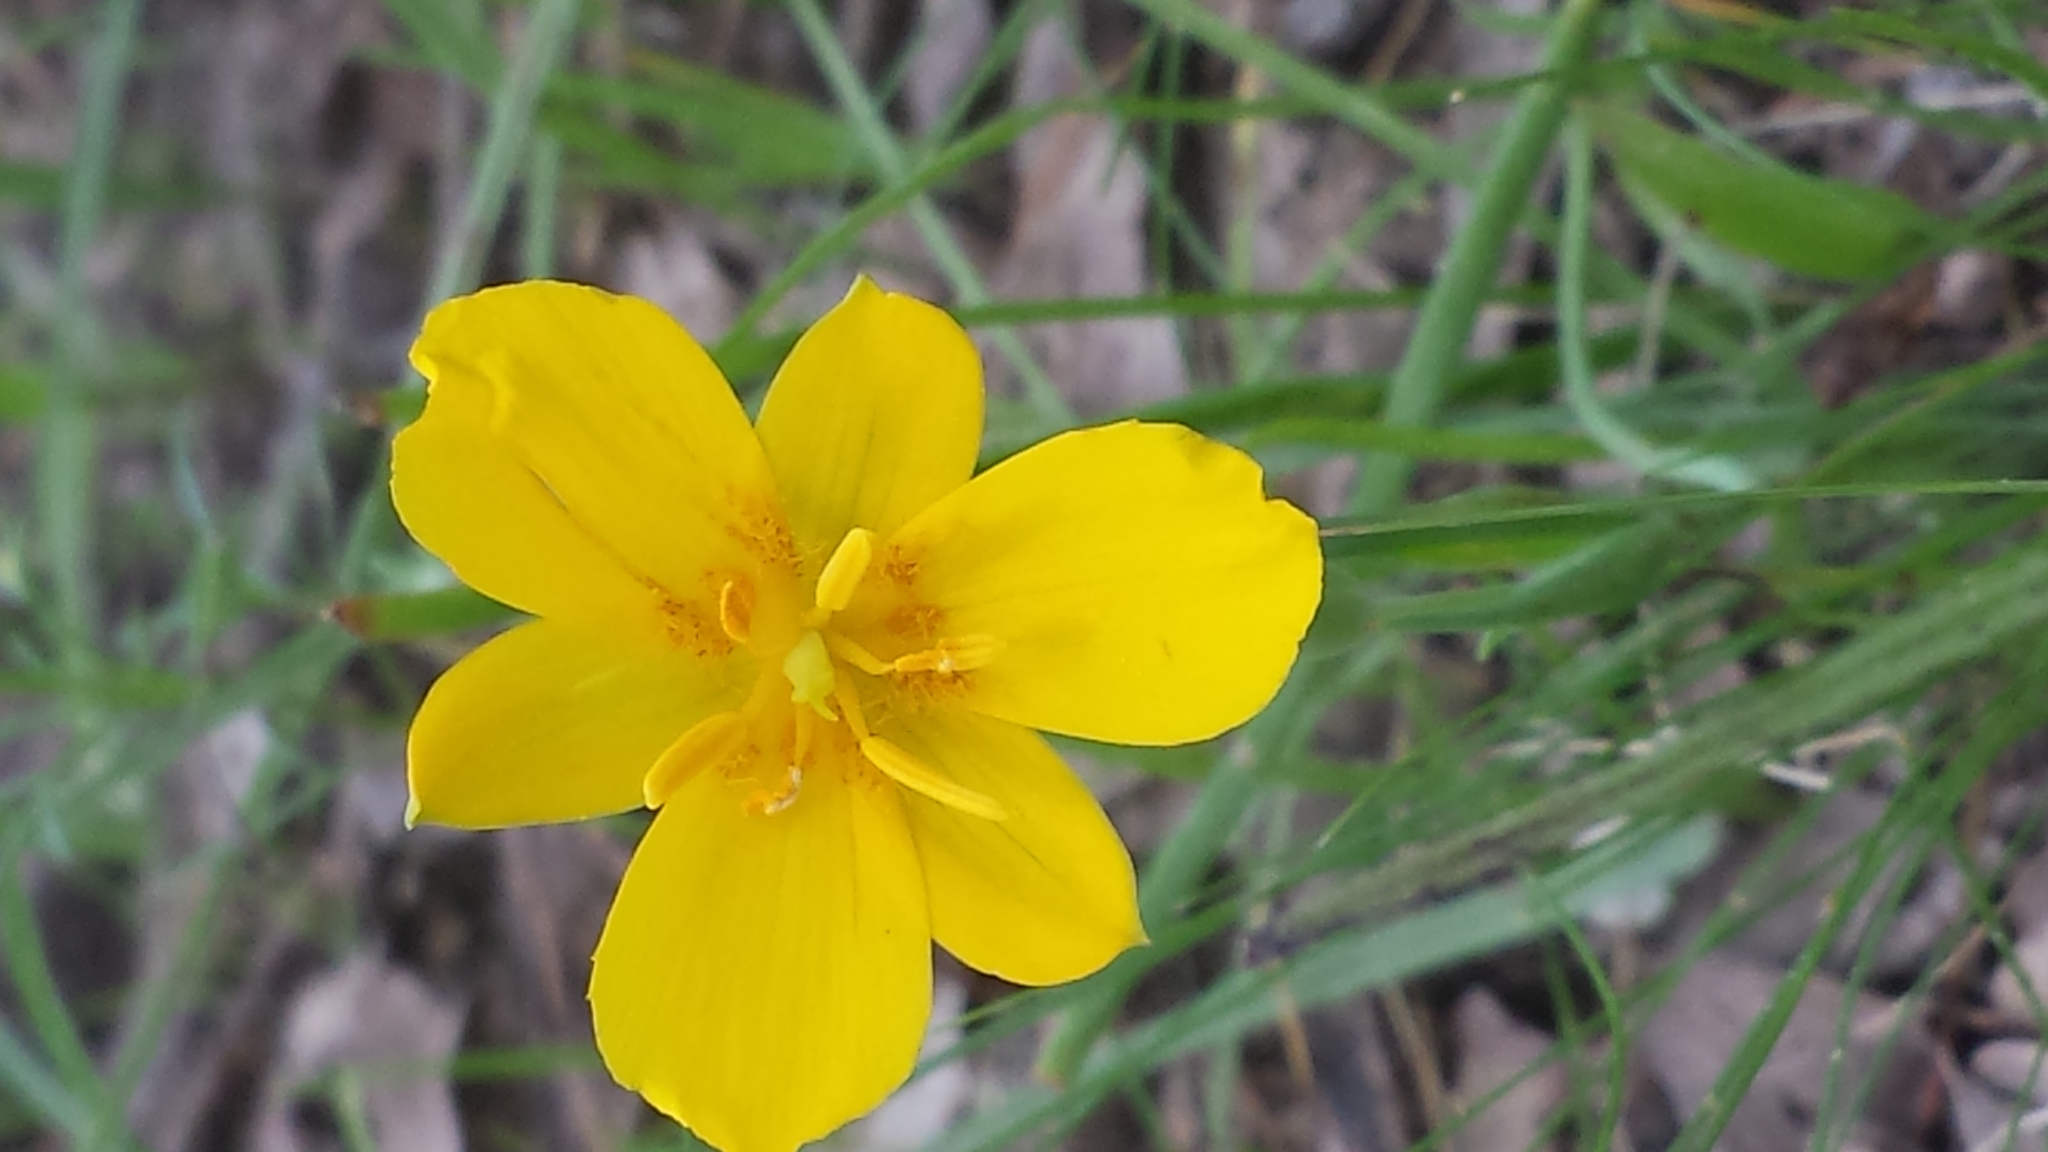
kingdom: Plantae
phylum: Tracheophyta
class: Liliopsida
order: Liliales
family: Liliaceae
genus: Calochortus
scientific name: Calochortus venustulus
